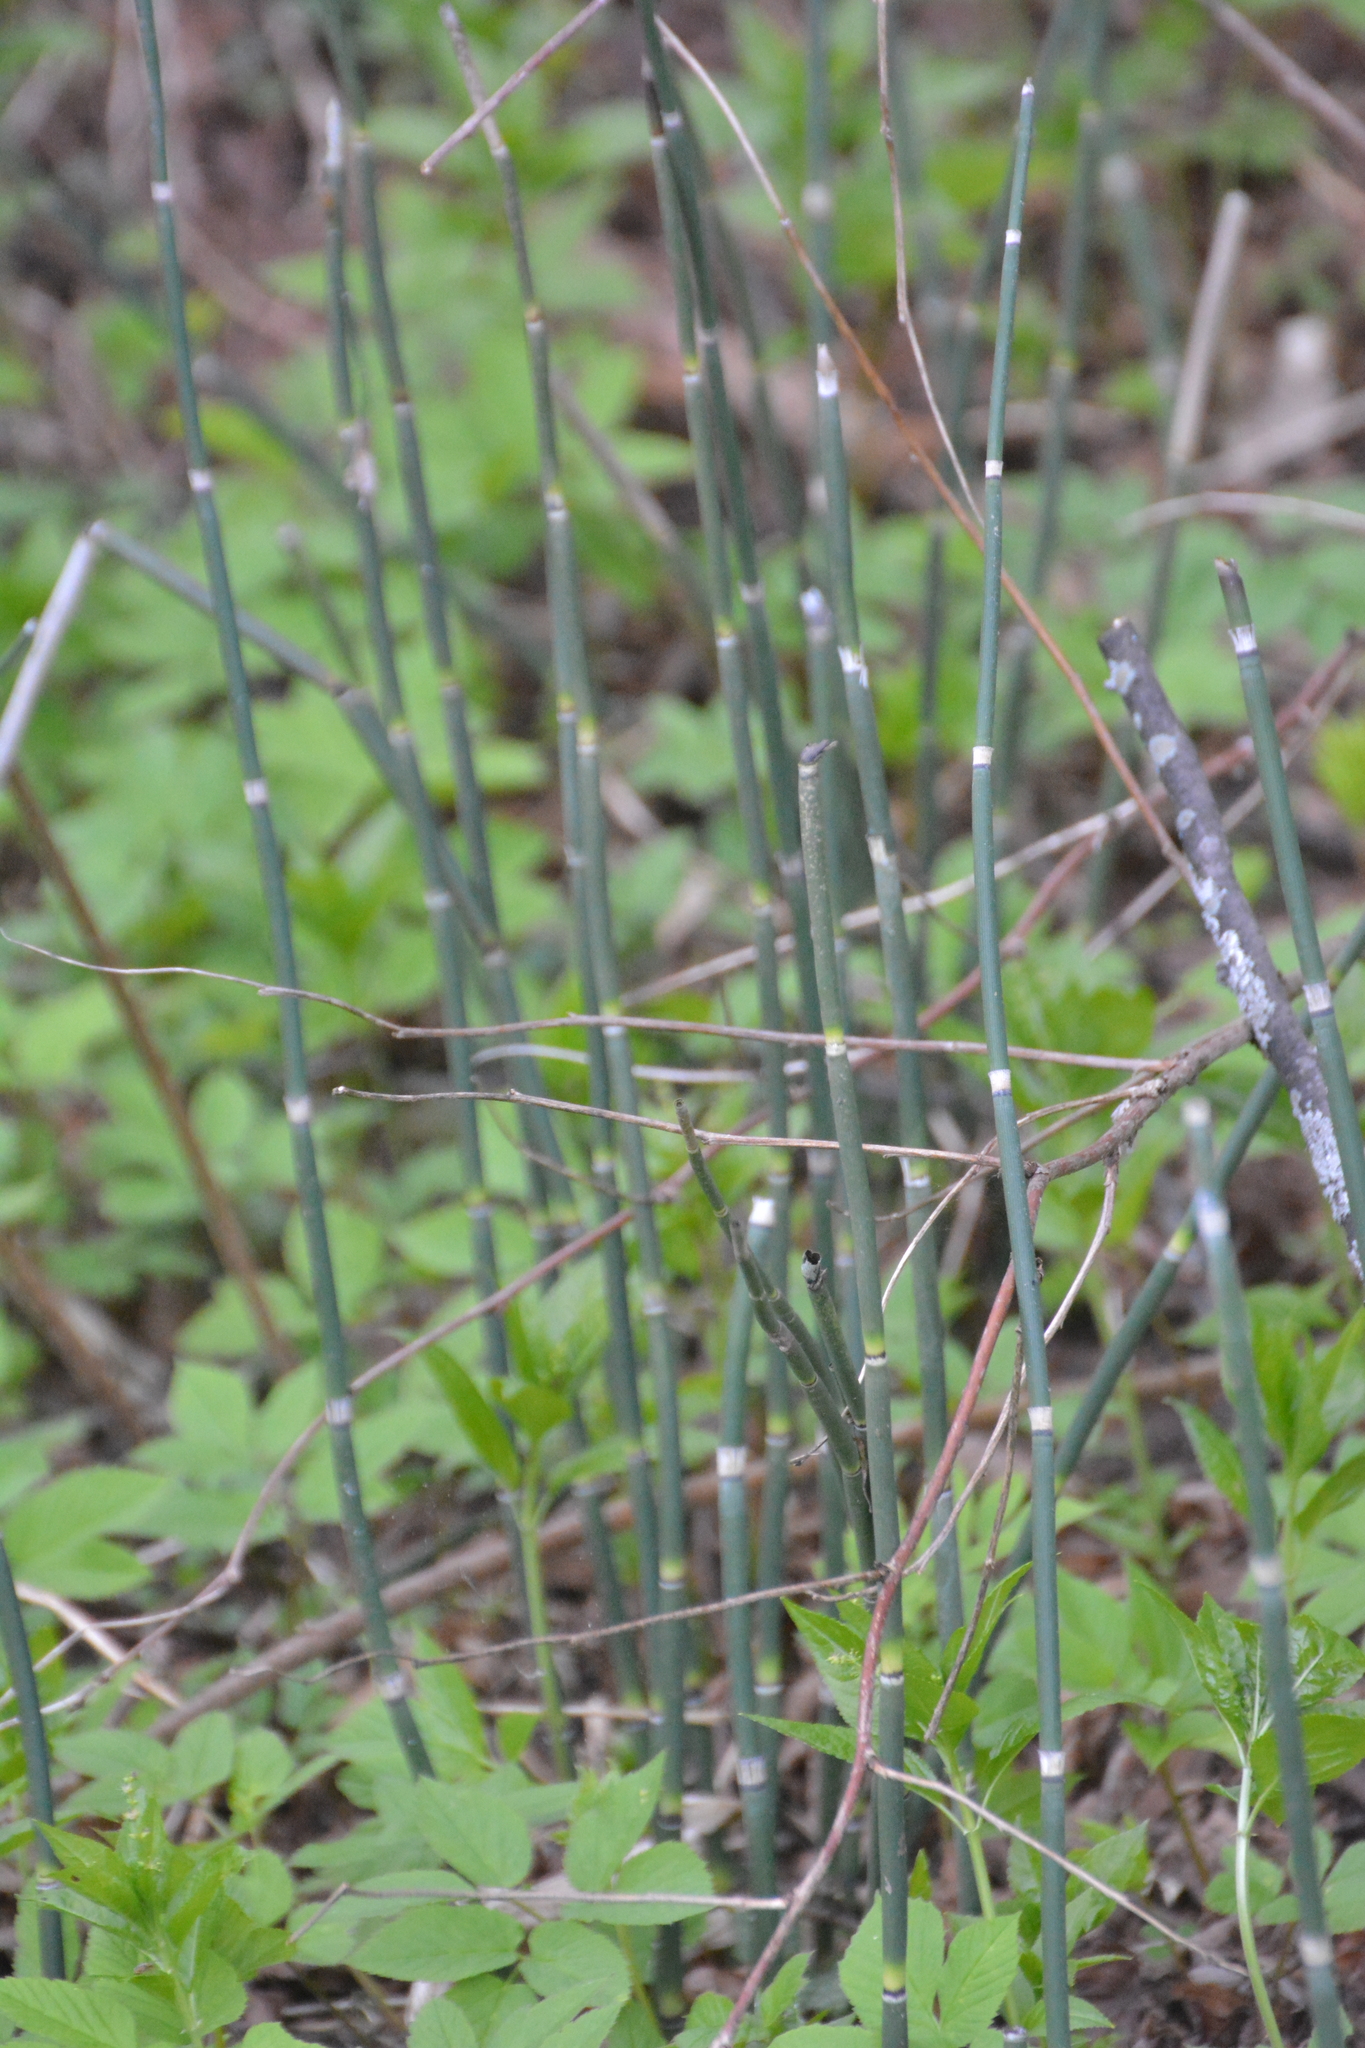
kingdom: Plantae
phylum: Tracheophyta
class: Polypodiopsida
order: Equisetales
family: Equisetaceae
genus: Equisetum
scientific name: Equisetum hyemale
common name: Rough horsetail
